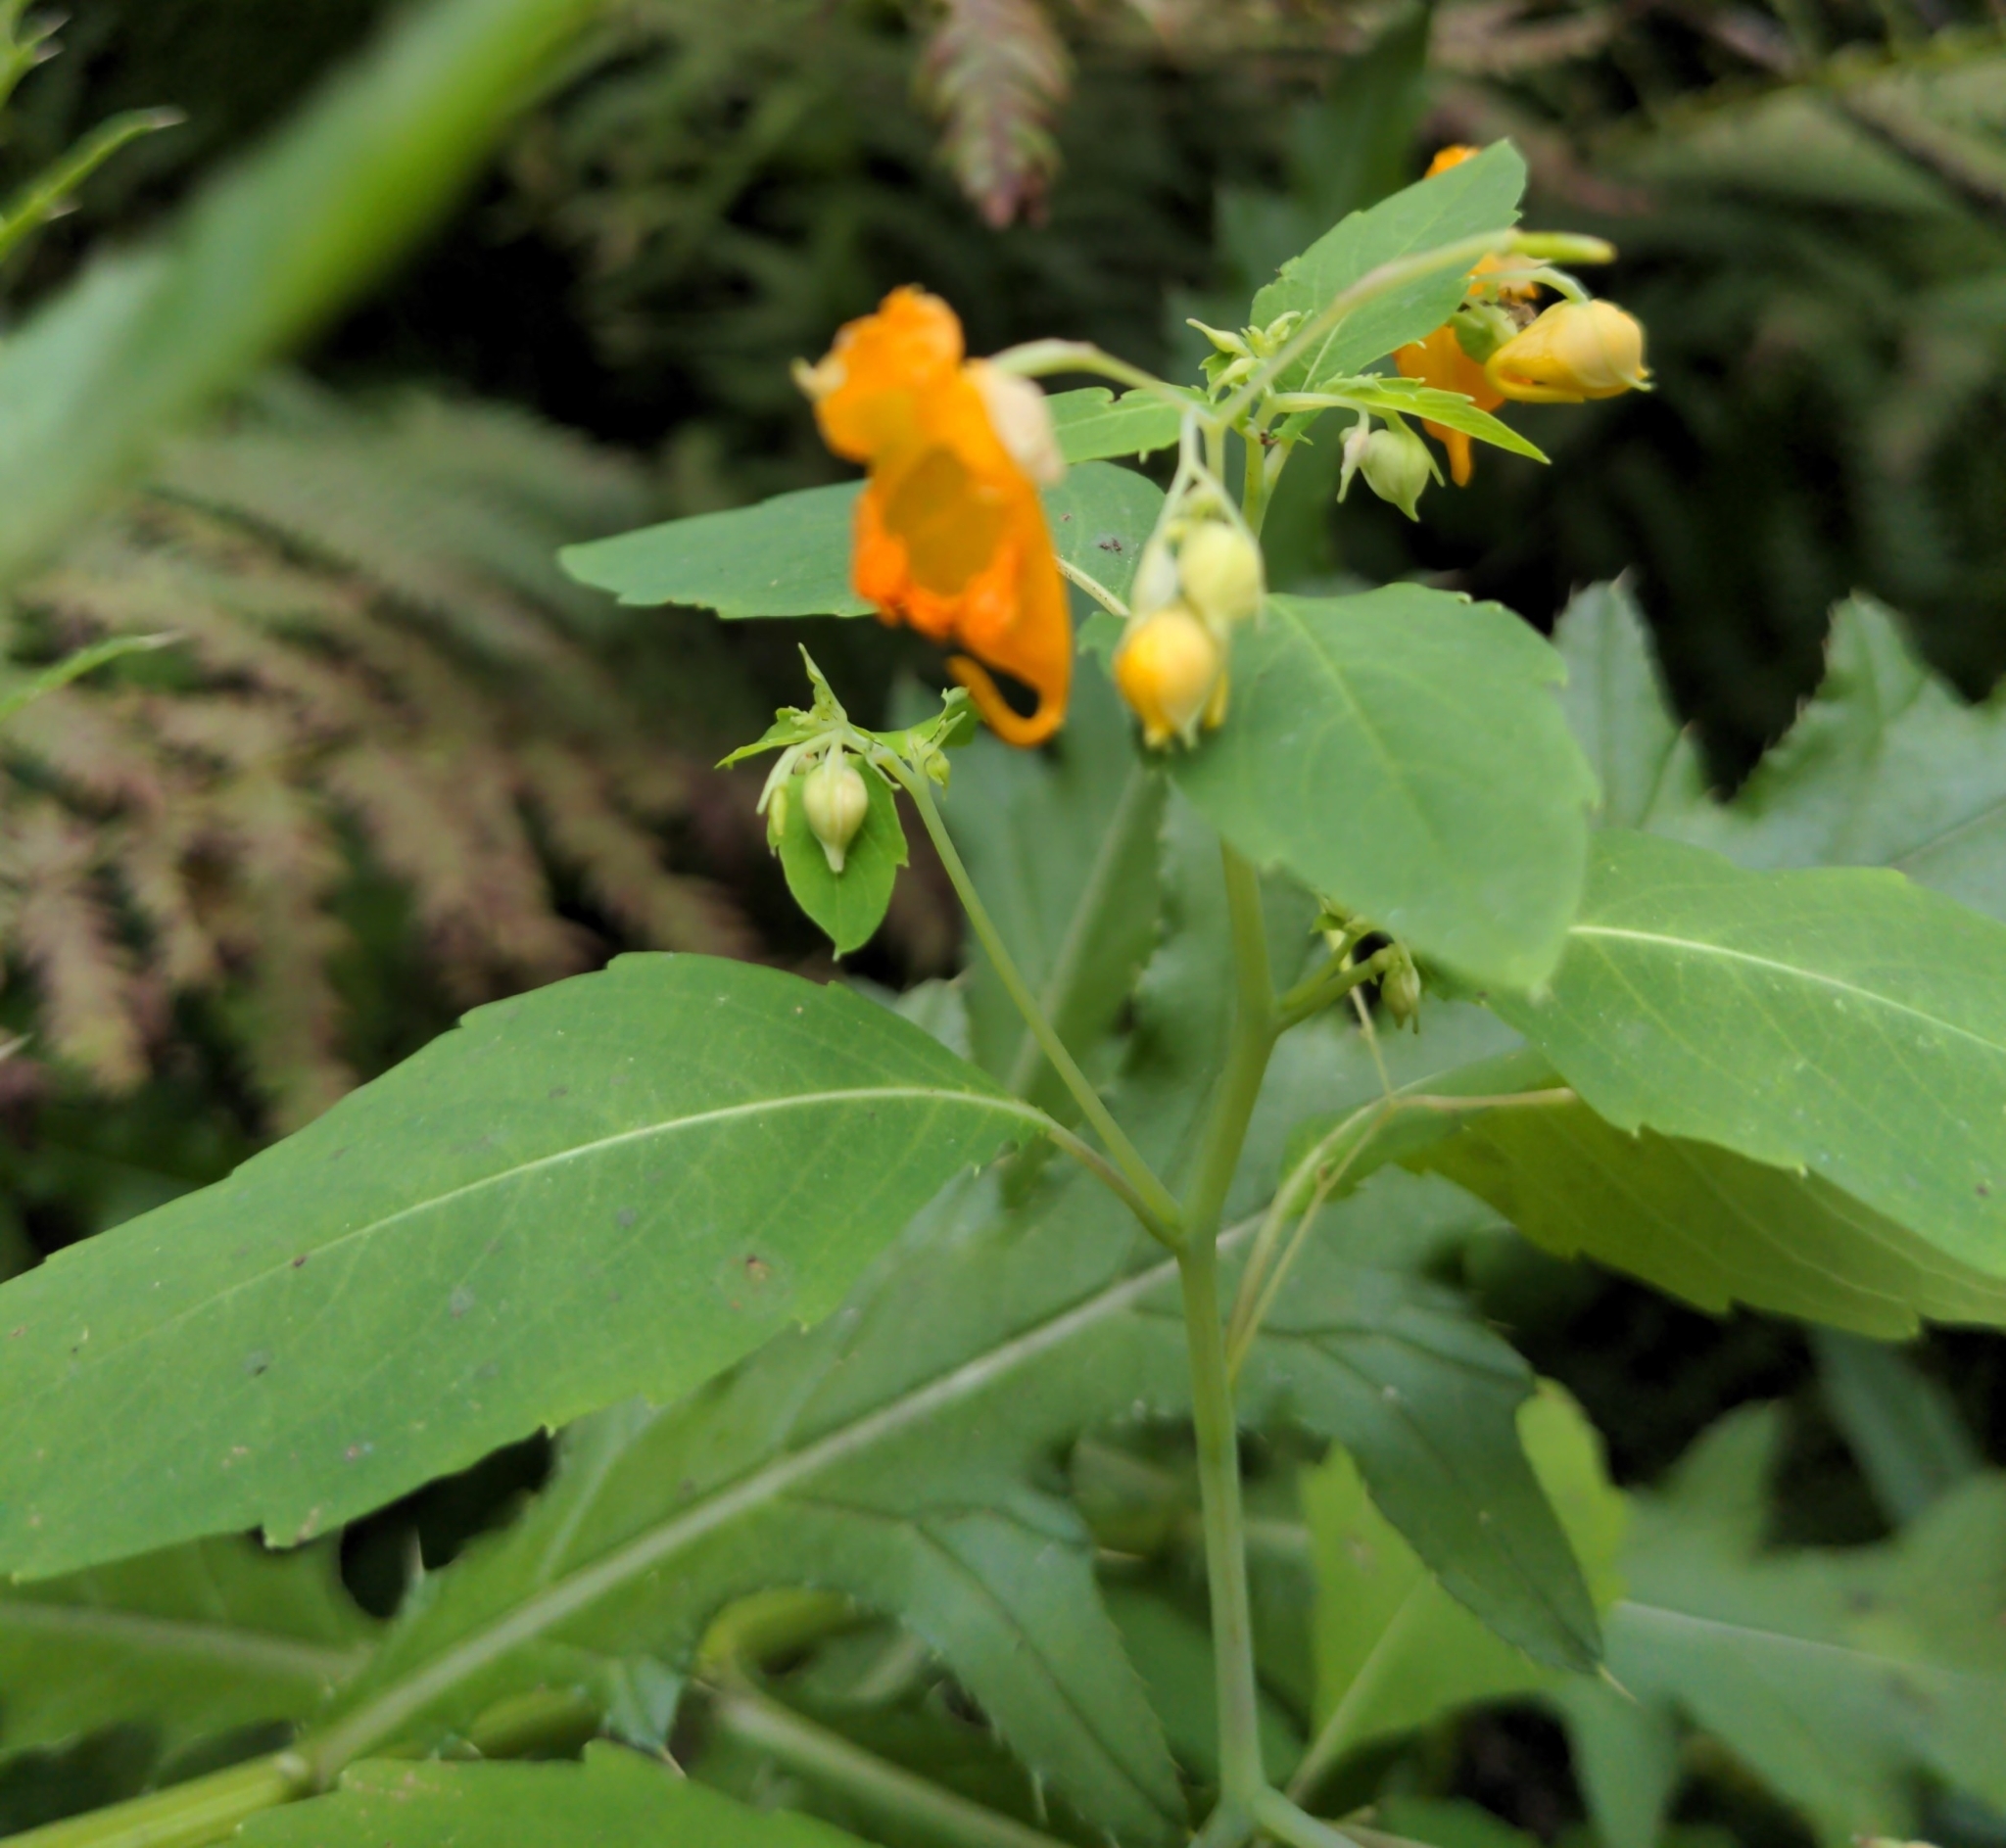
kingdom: Plantae
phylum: Tracheophyta
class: Magnoliopsida
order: Ericales
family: Balsaminaceae
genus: Impatiens
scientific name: Impatiens capensis
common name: Orange balsam
